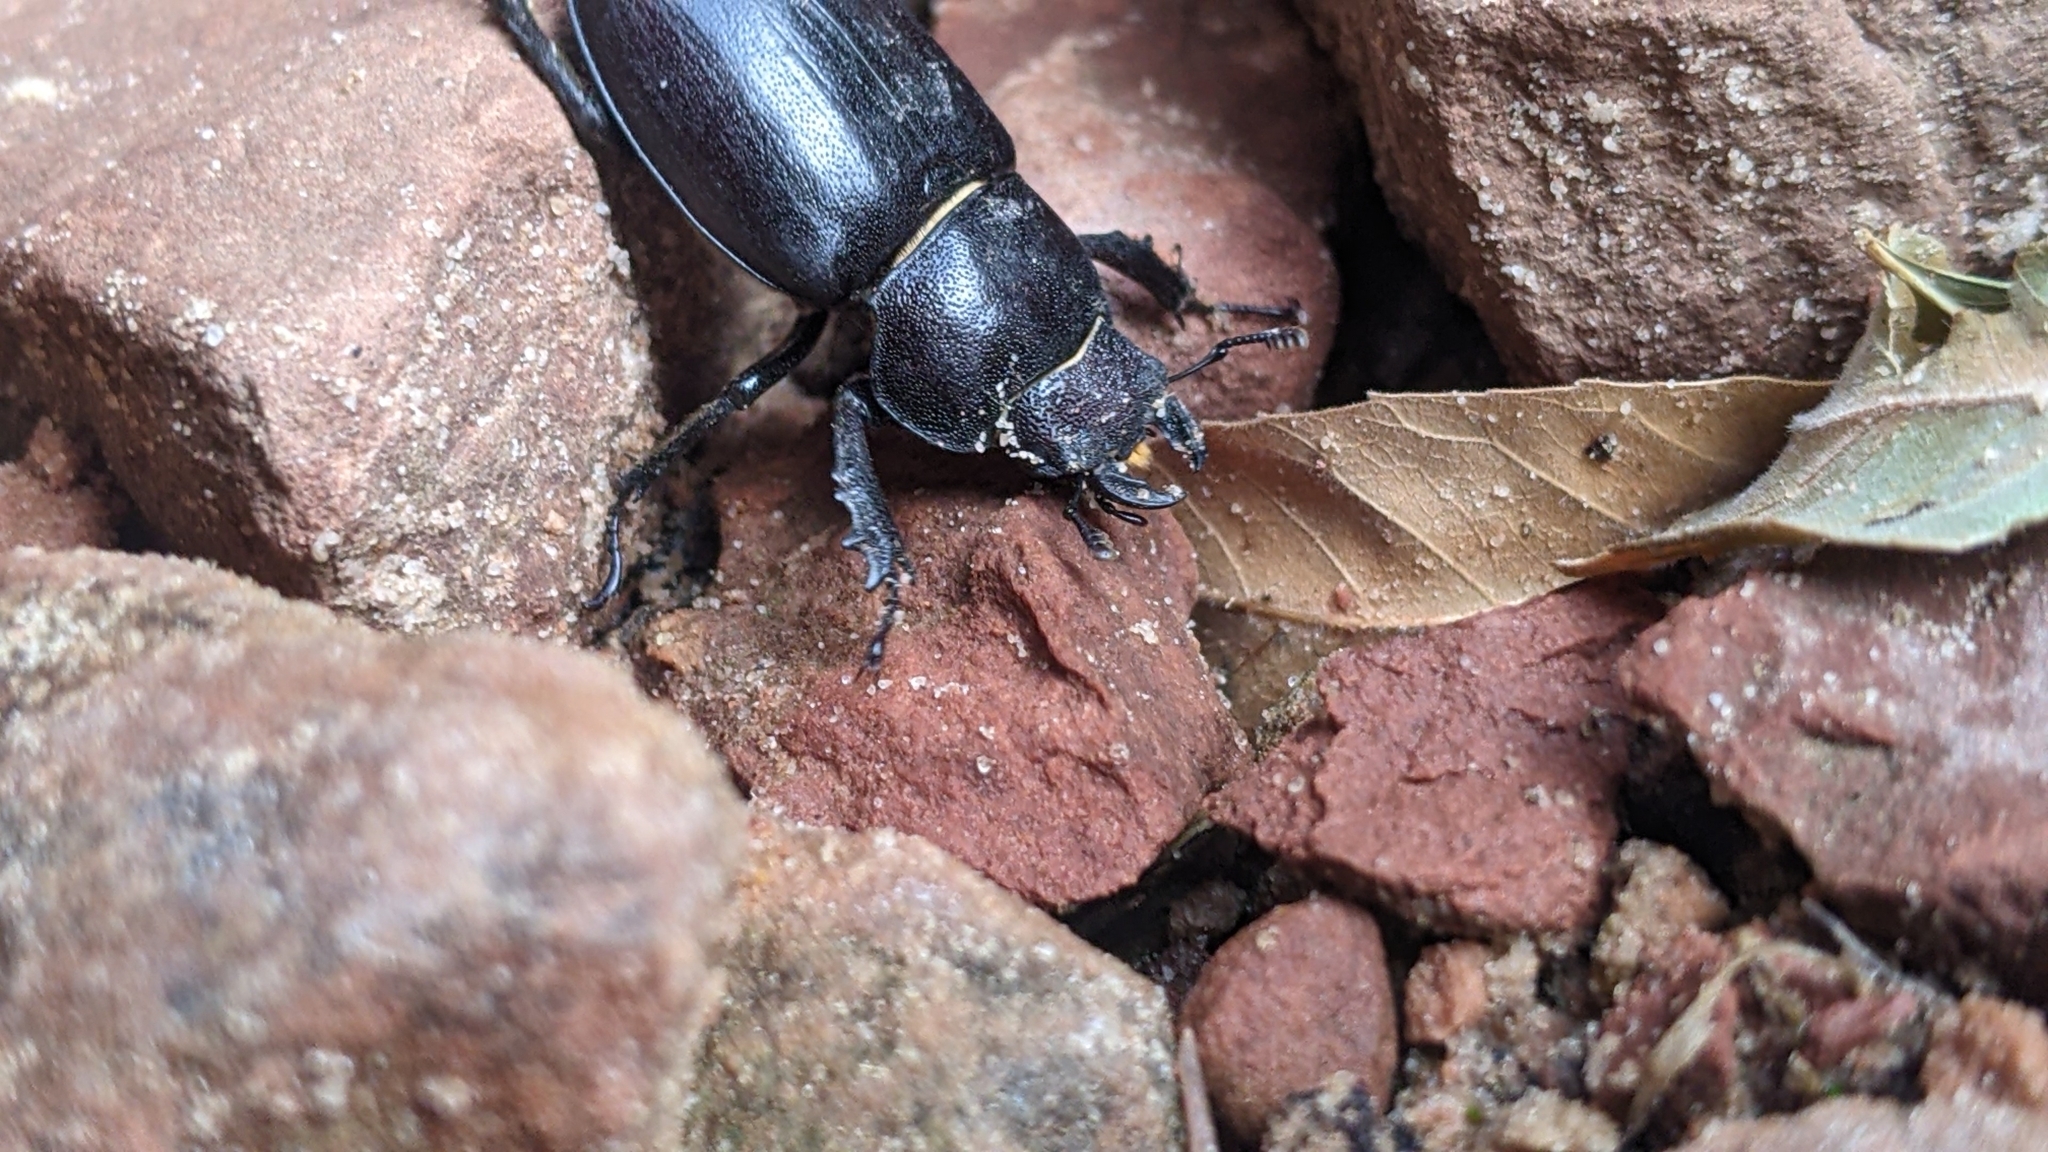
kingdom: Animalia
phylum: Arthropoda
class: Insecta
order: Coleoptera
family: Lucanidae
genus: Lucanus
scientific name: Lucanus mazama
